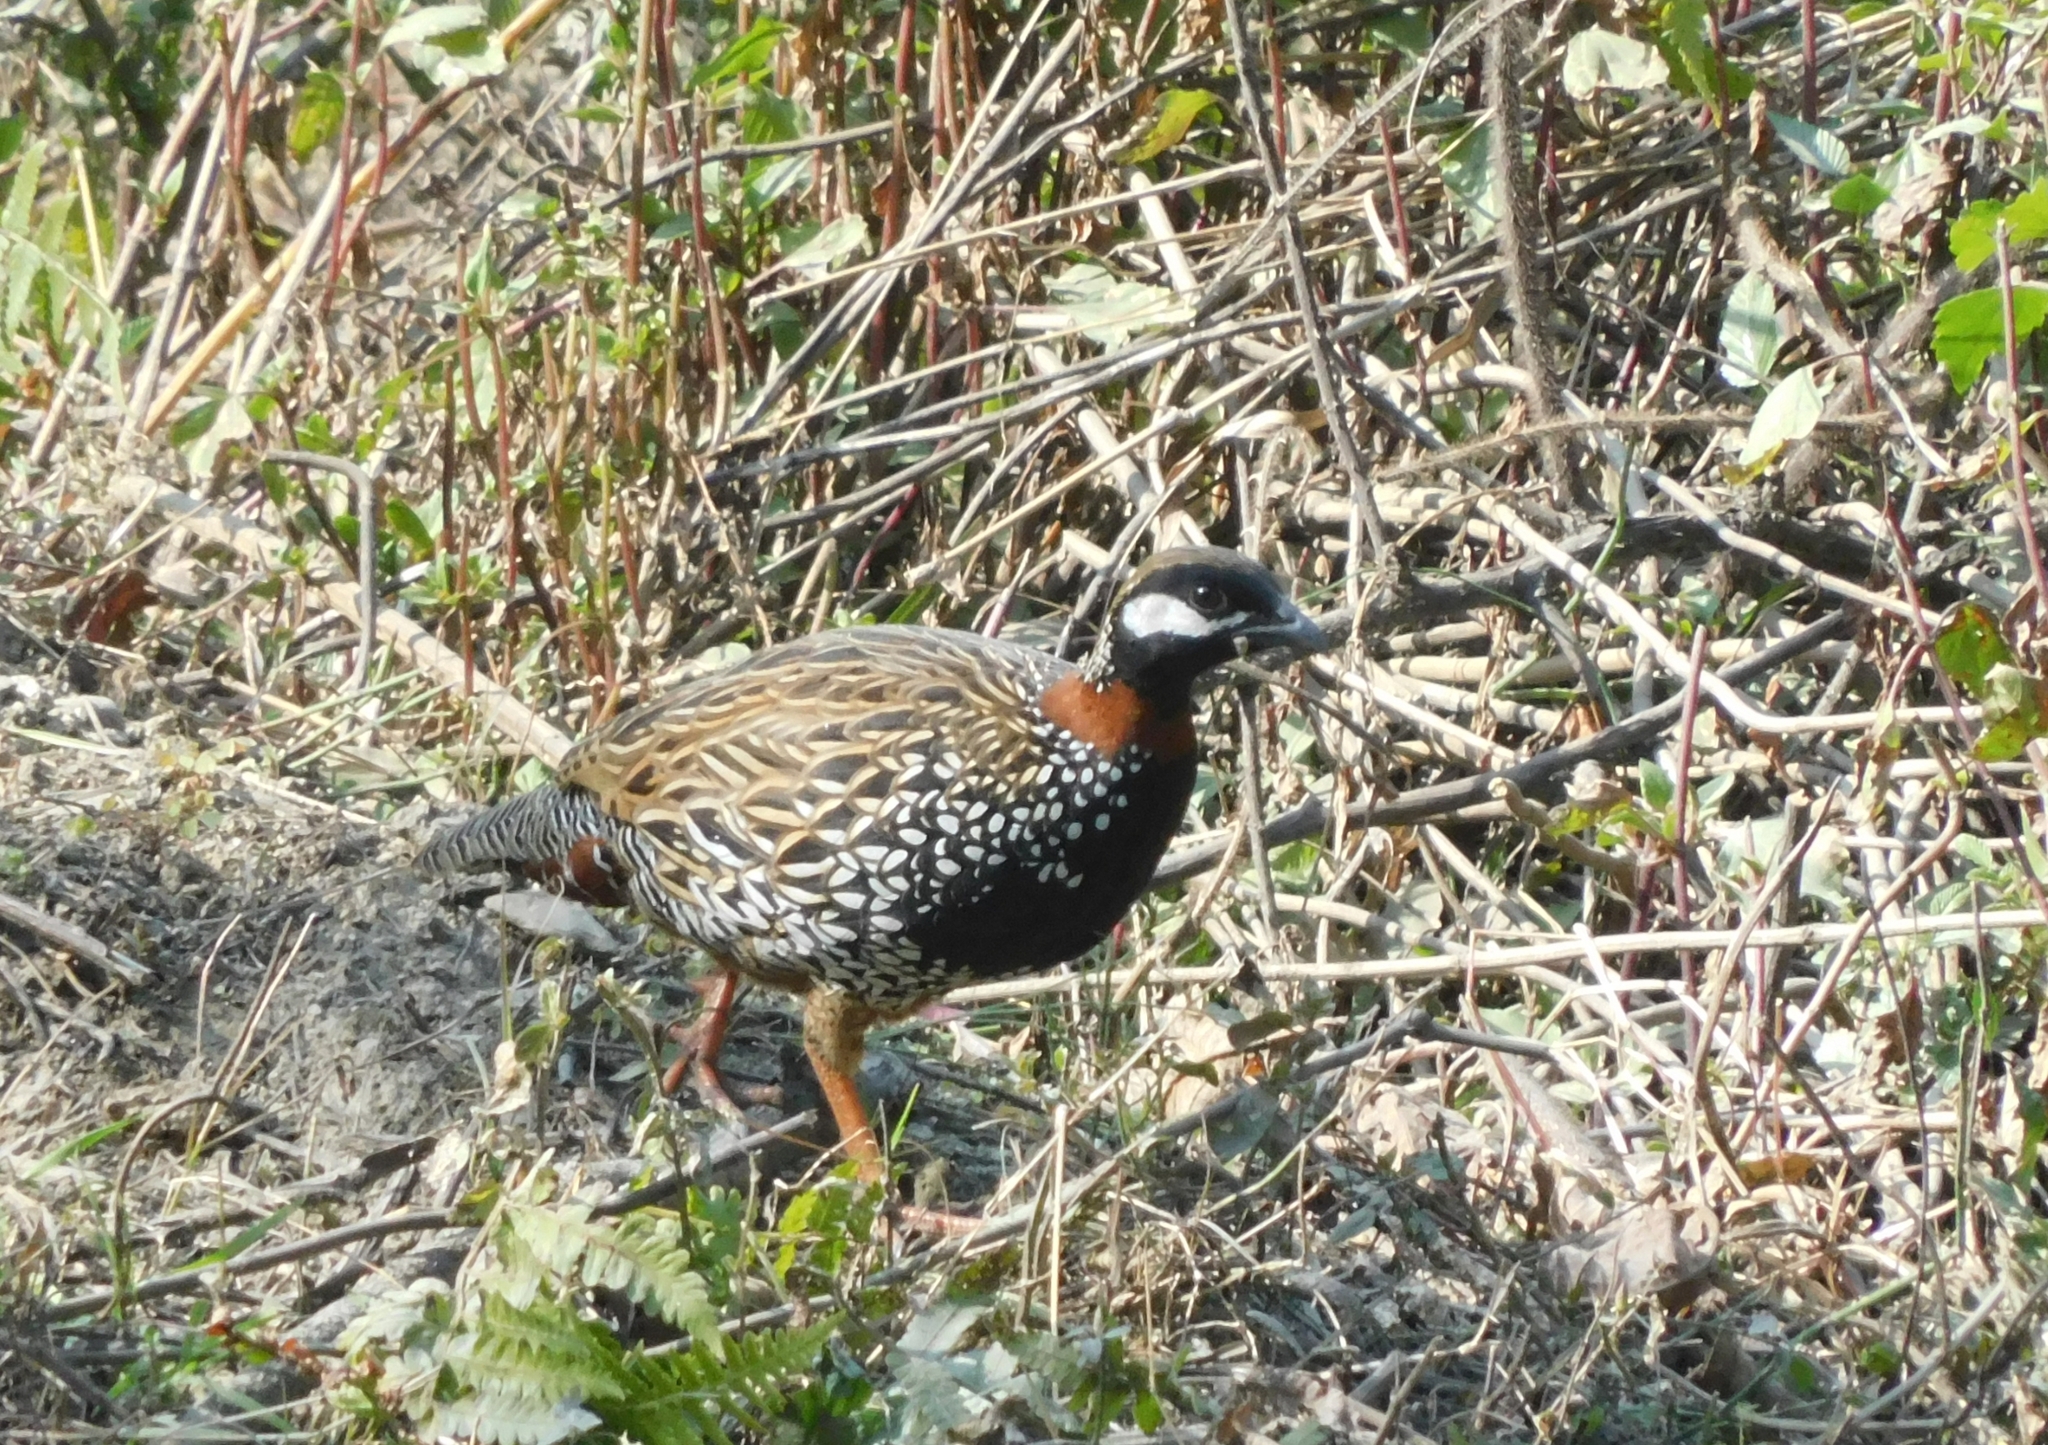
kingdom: Animalia
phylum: Chordata
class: Aves
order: Galliformes
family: Phasianidae
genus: Francolinus
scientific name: Francolinus francolinus
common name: Black francolin
